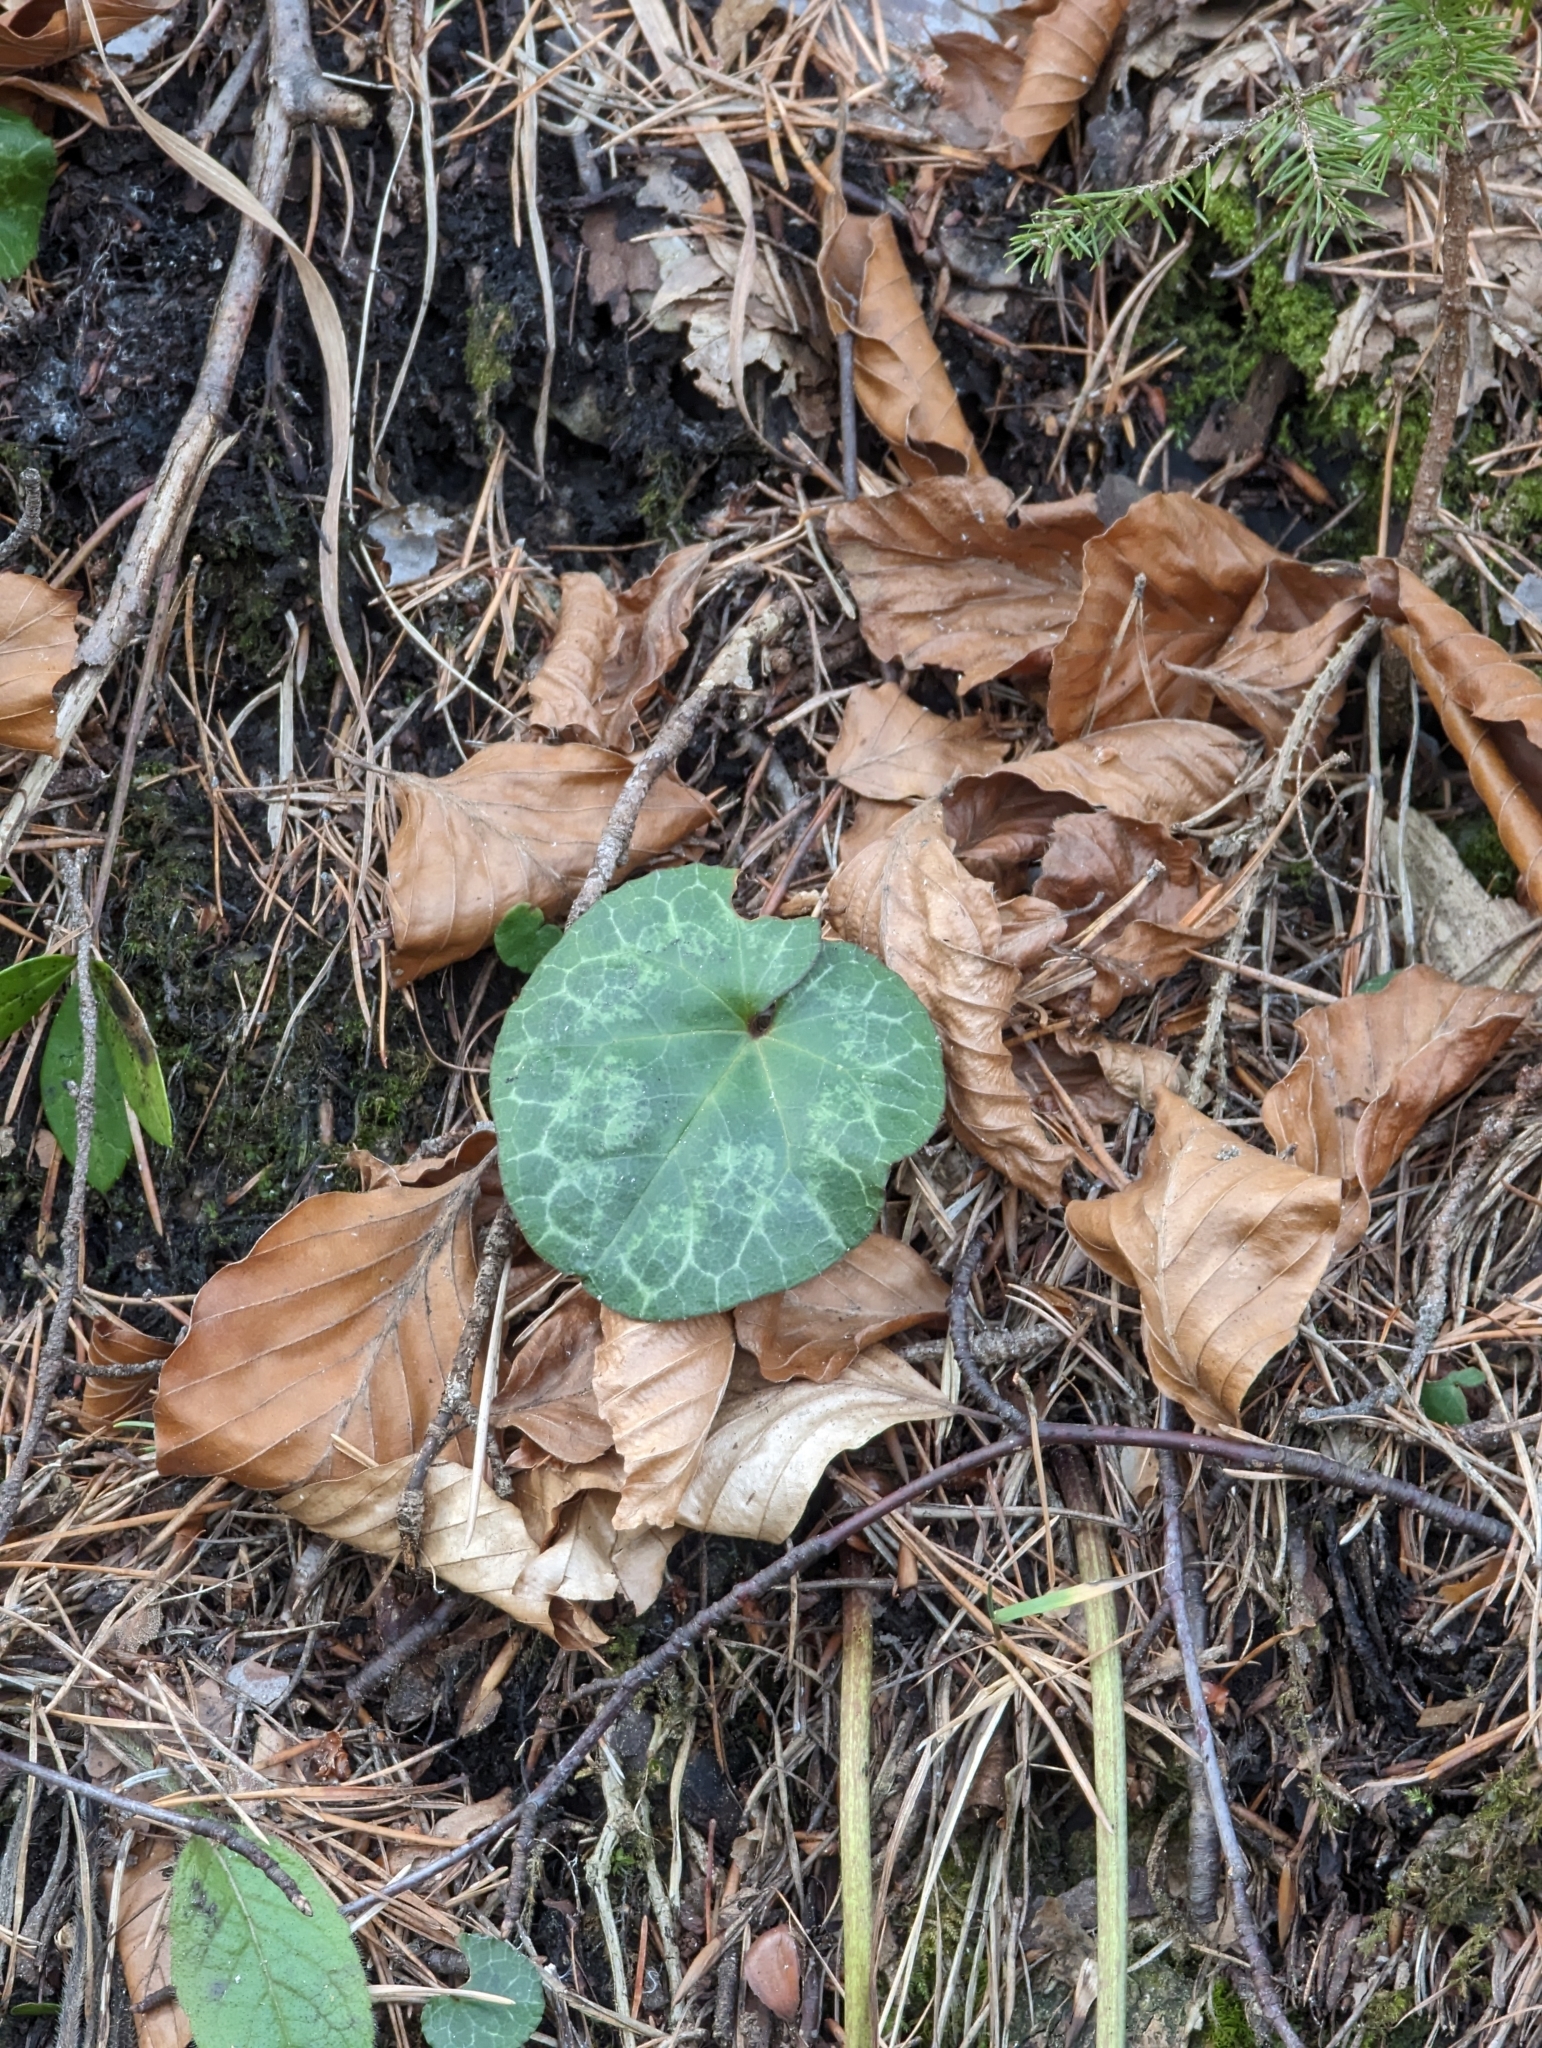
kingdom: Plantae
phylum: Tracheophyta
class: Magnoliopsida
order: Ericales
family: Primulaceae
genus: Cyclamen
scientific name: Cyclamen purpurascens
